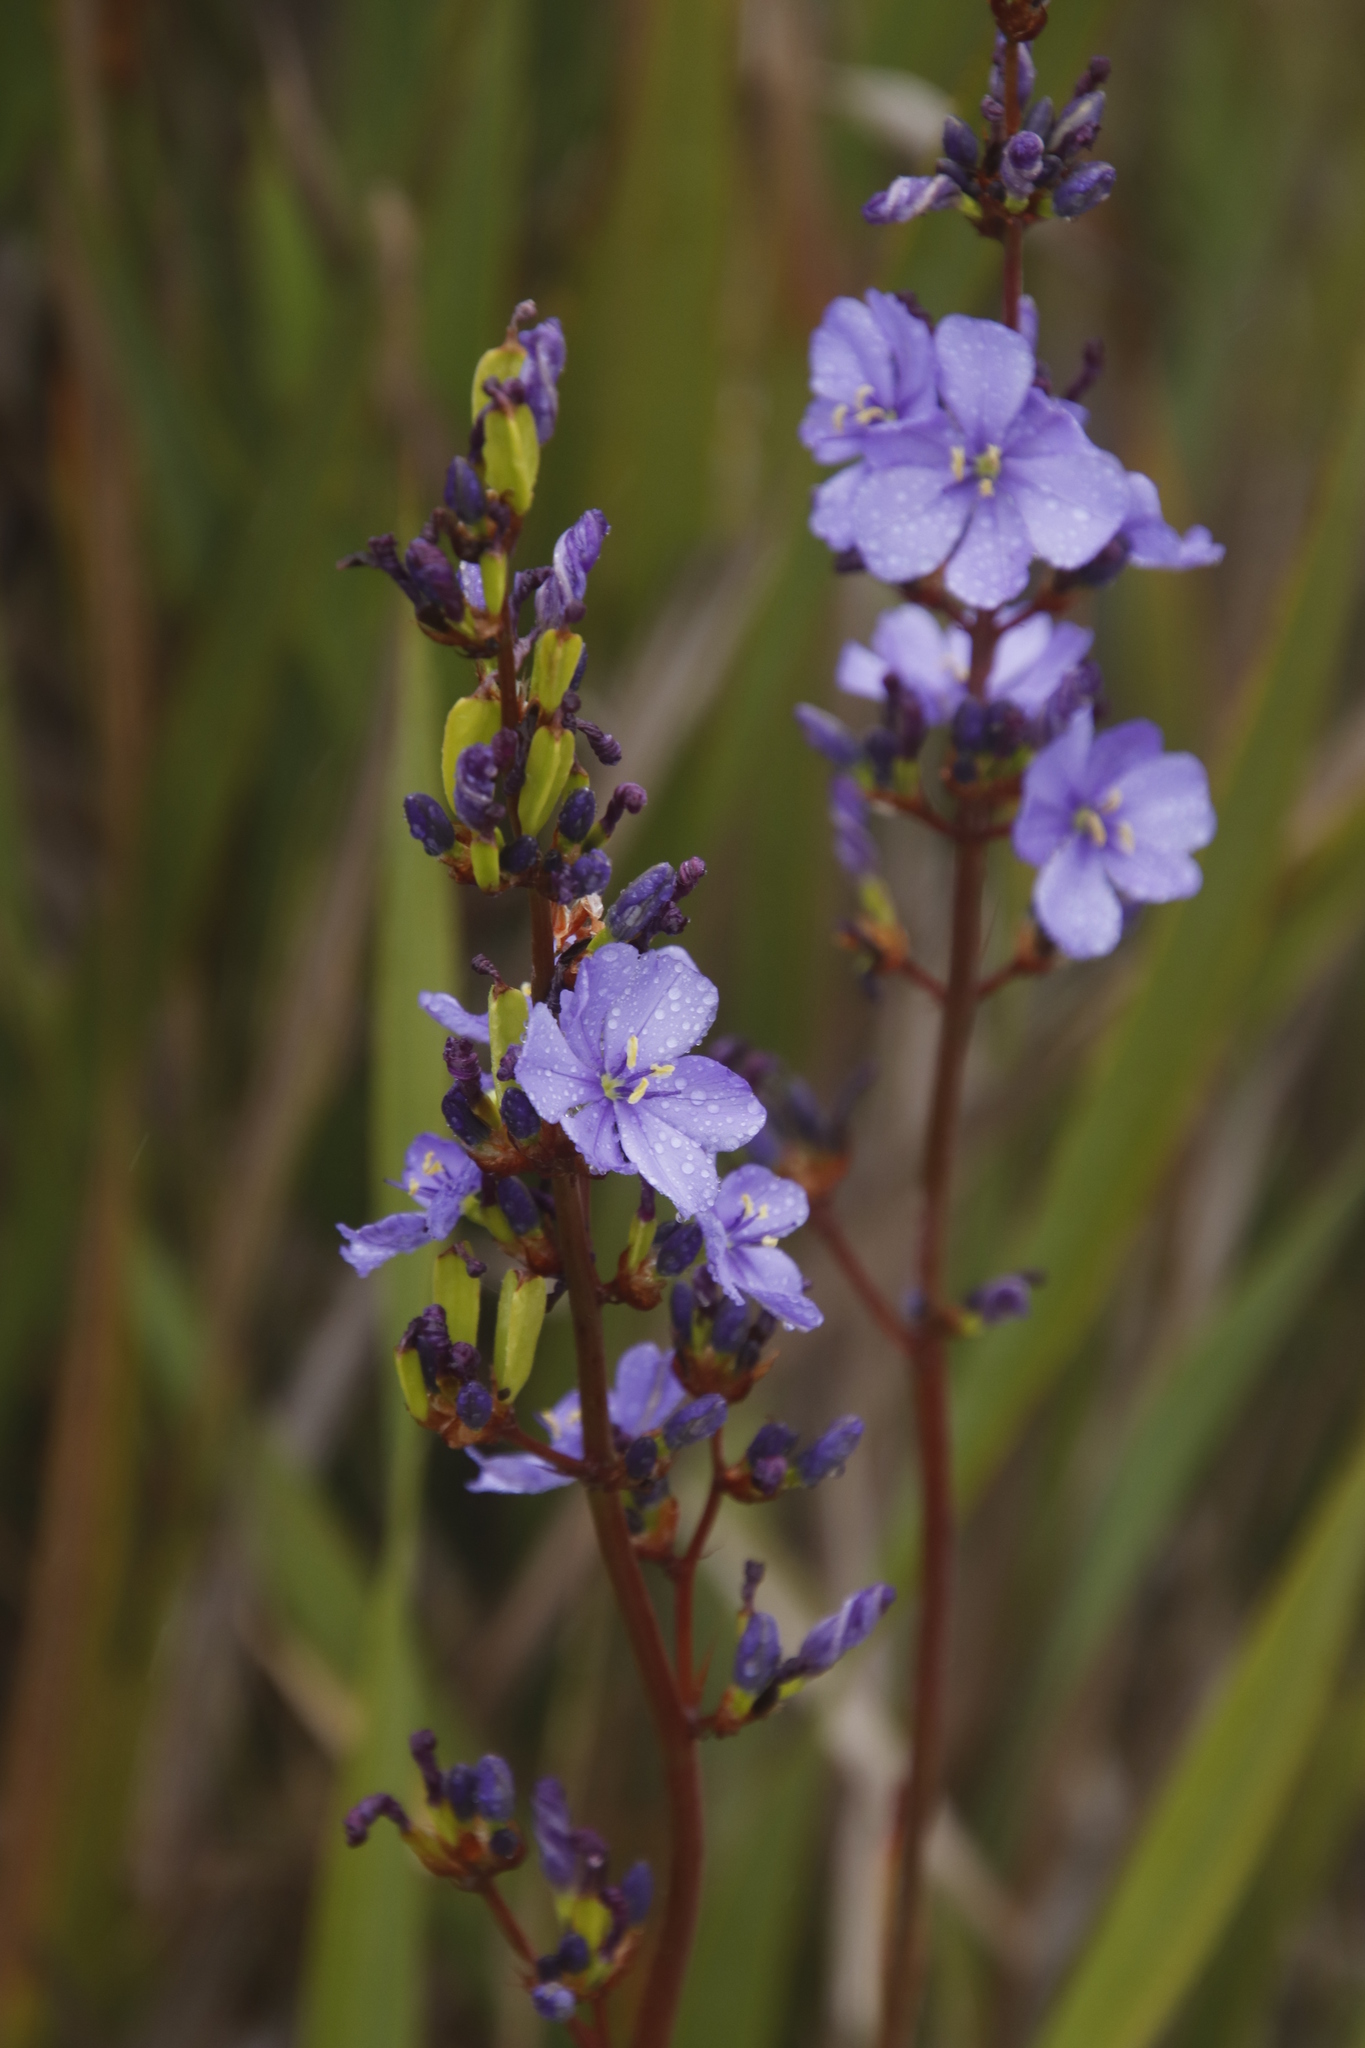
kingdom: Plantae
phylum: Tracheophyta
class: Liliopsida
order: Asparagales
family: Iridaceae
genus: Aristea
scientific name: Aristea bakeri
